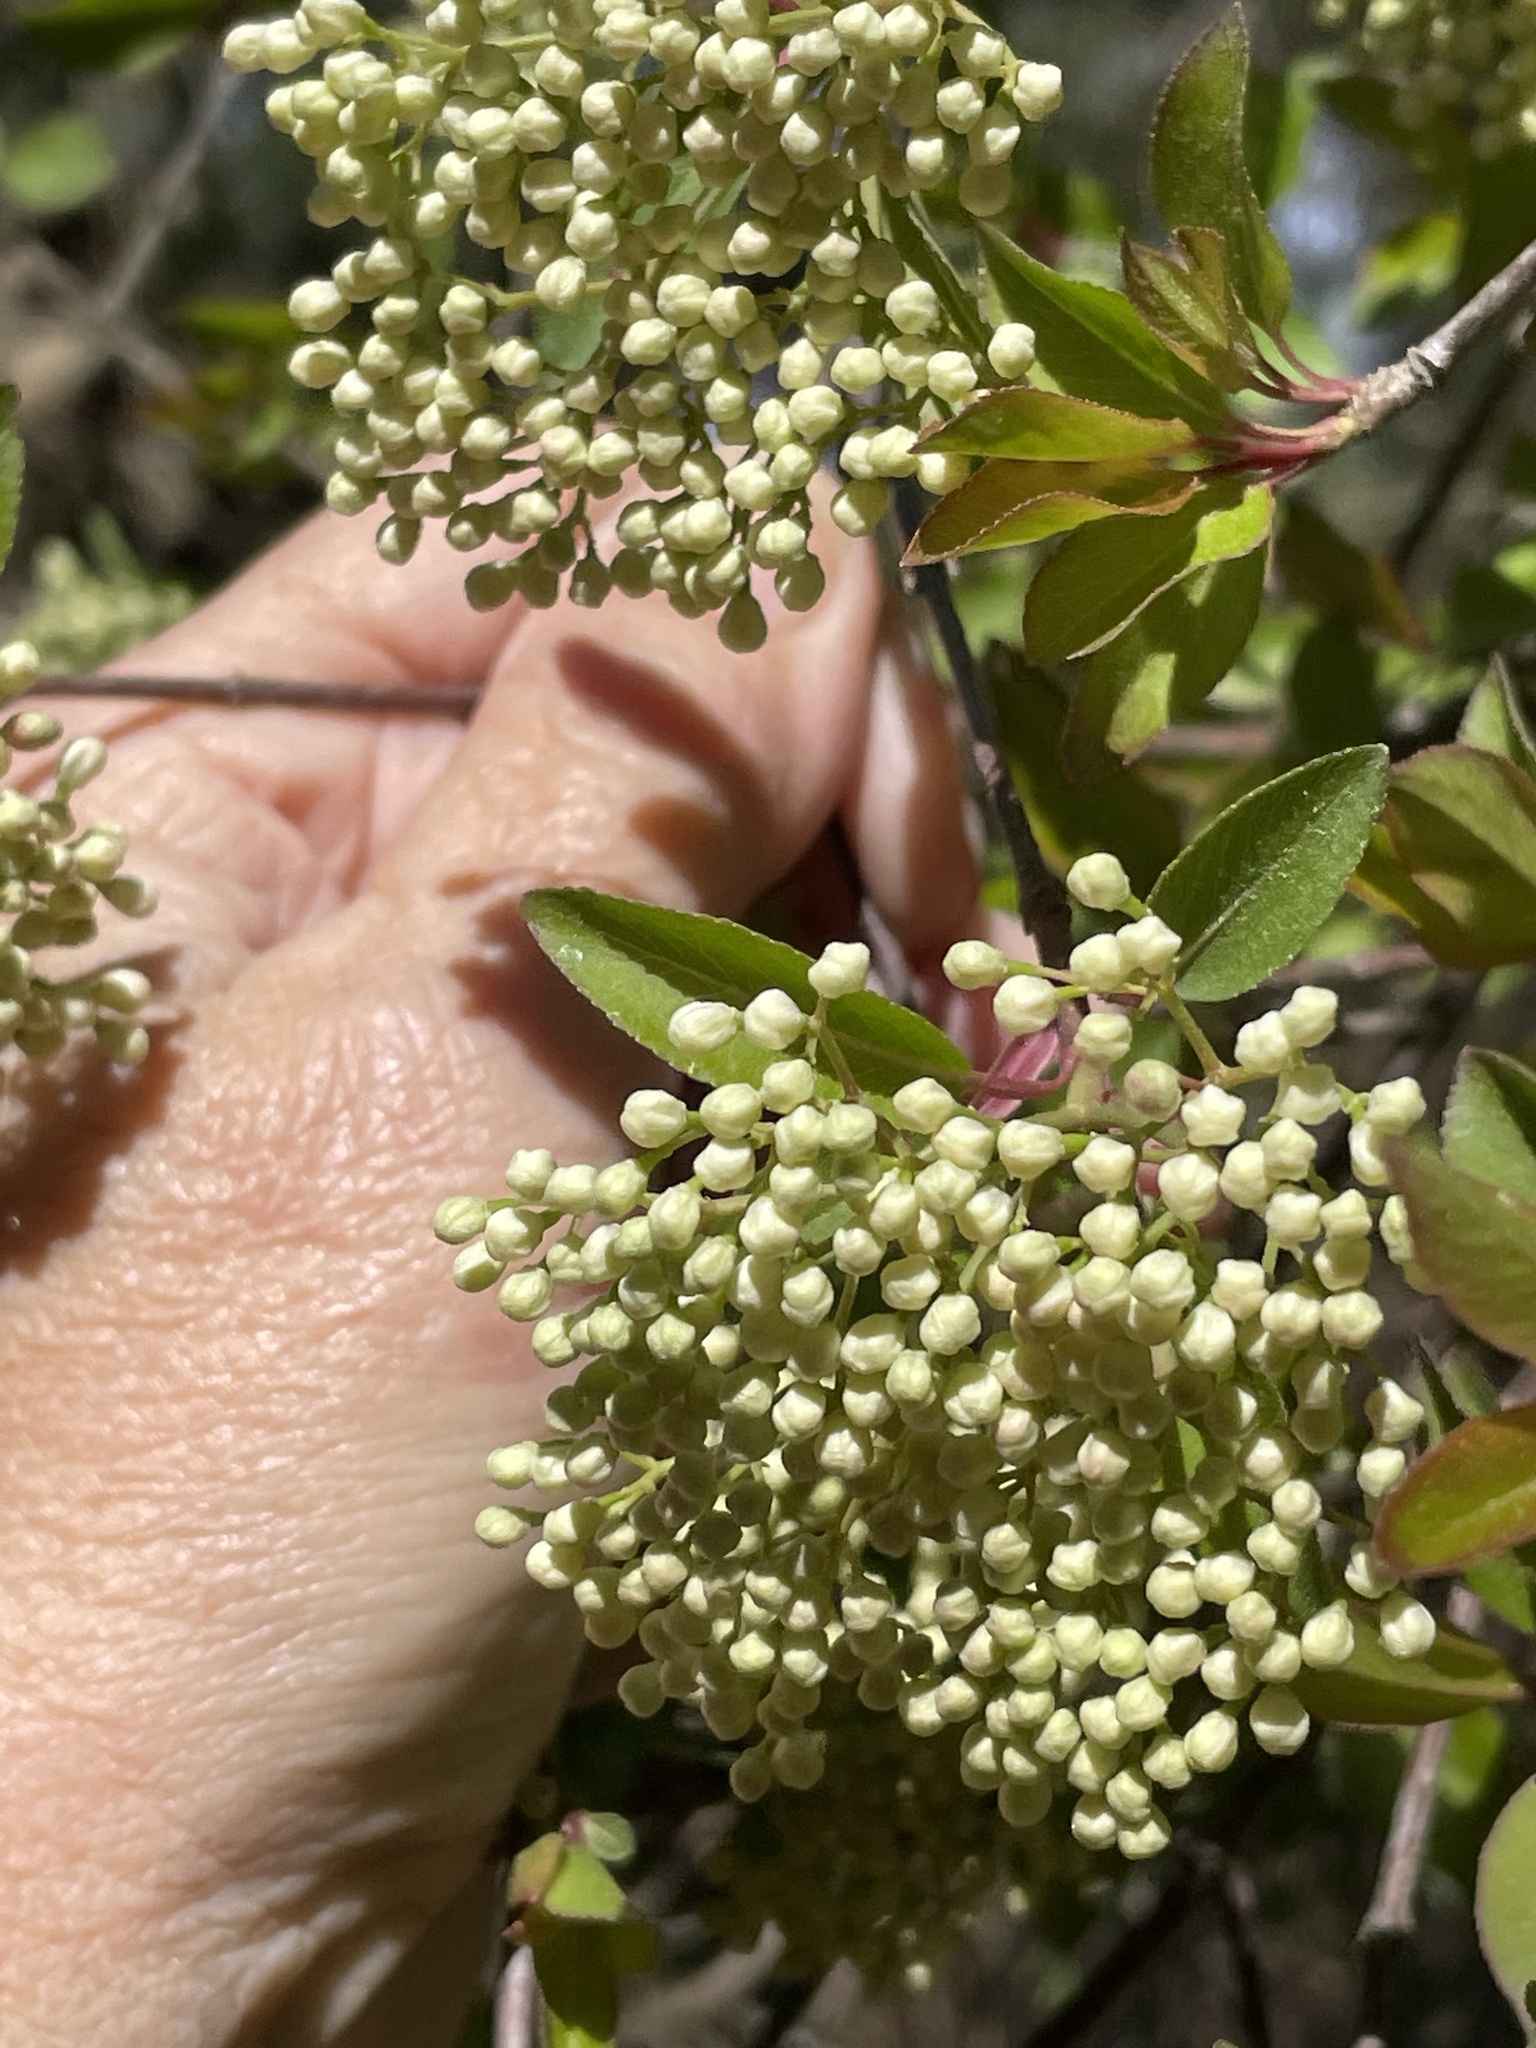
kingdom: Plantae
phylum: Tracheophyta
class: Magnoliopsida
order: Dipsacales
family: Viburnaceae
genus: Viburnum
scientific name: Viburnum prunifolium
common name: Black haw
